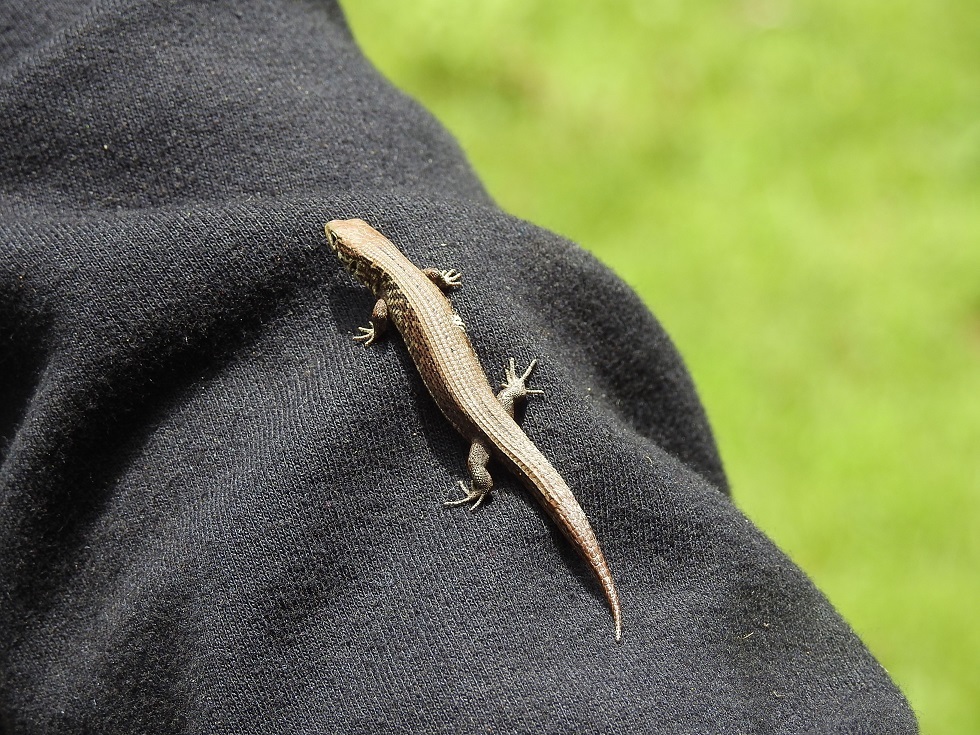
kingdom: Animalia
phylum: Chordata
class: Squamata
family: Anguidae
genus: Abronia
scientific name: Abronia moreletii
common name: Morelet's alligator lizard
